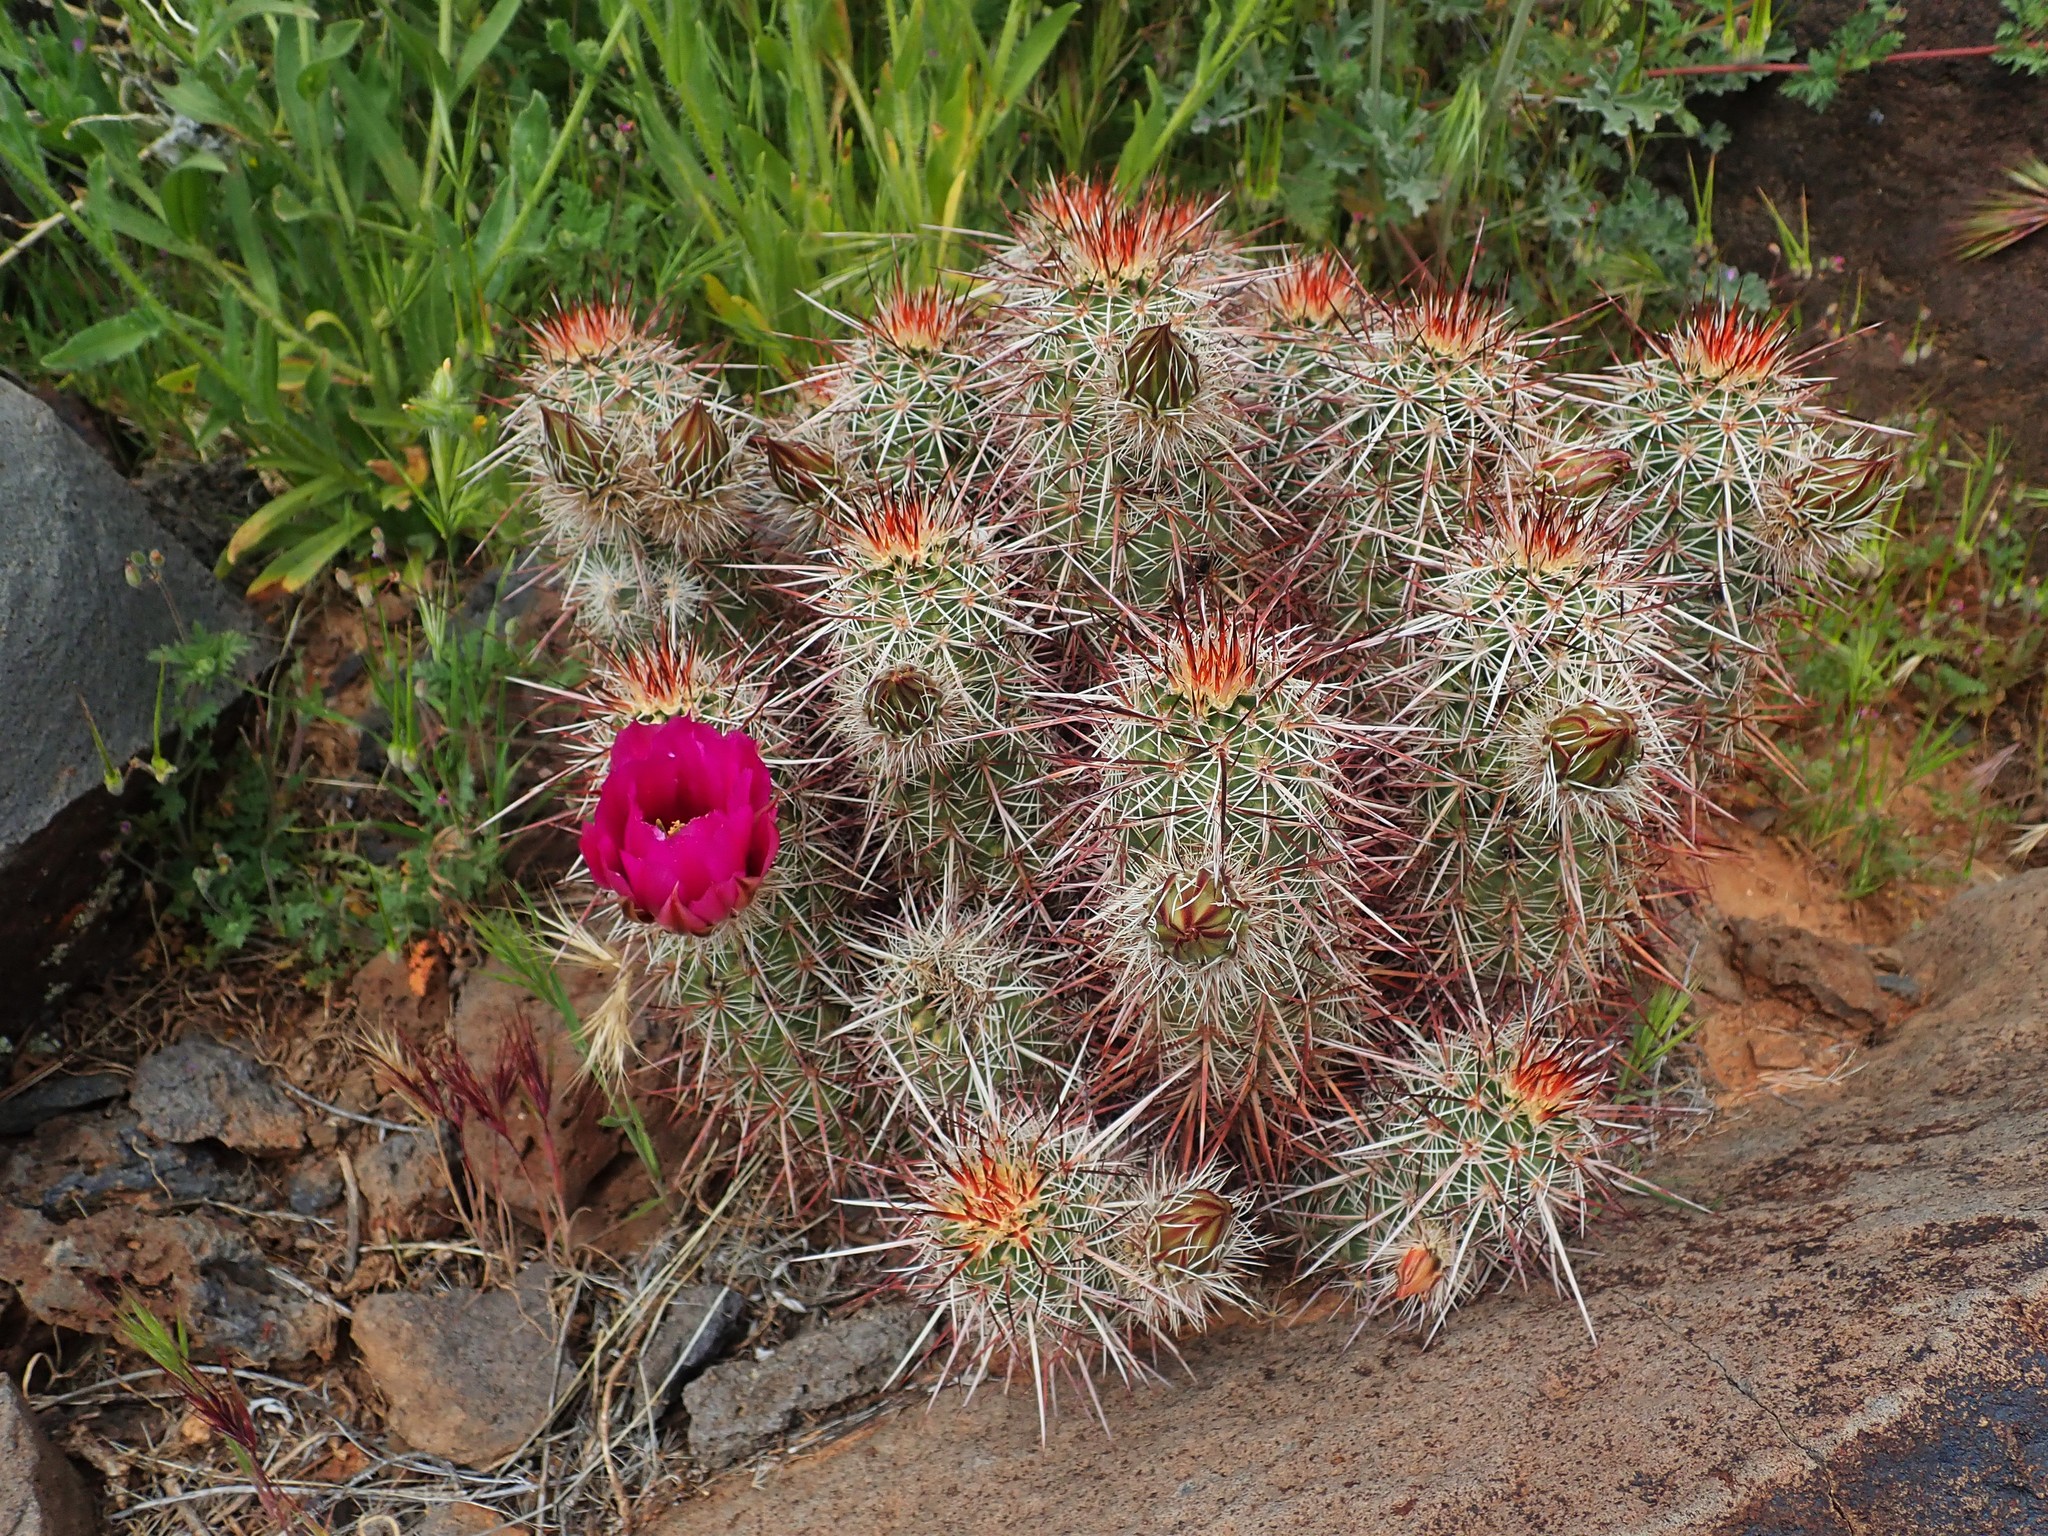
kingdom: Plantae
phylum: Tracheophyta
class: Magnoliopsida
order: Caryophyllales
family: Cactaceae
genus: Echinocereus
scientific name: Echinocereus relictus
